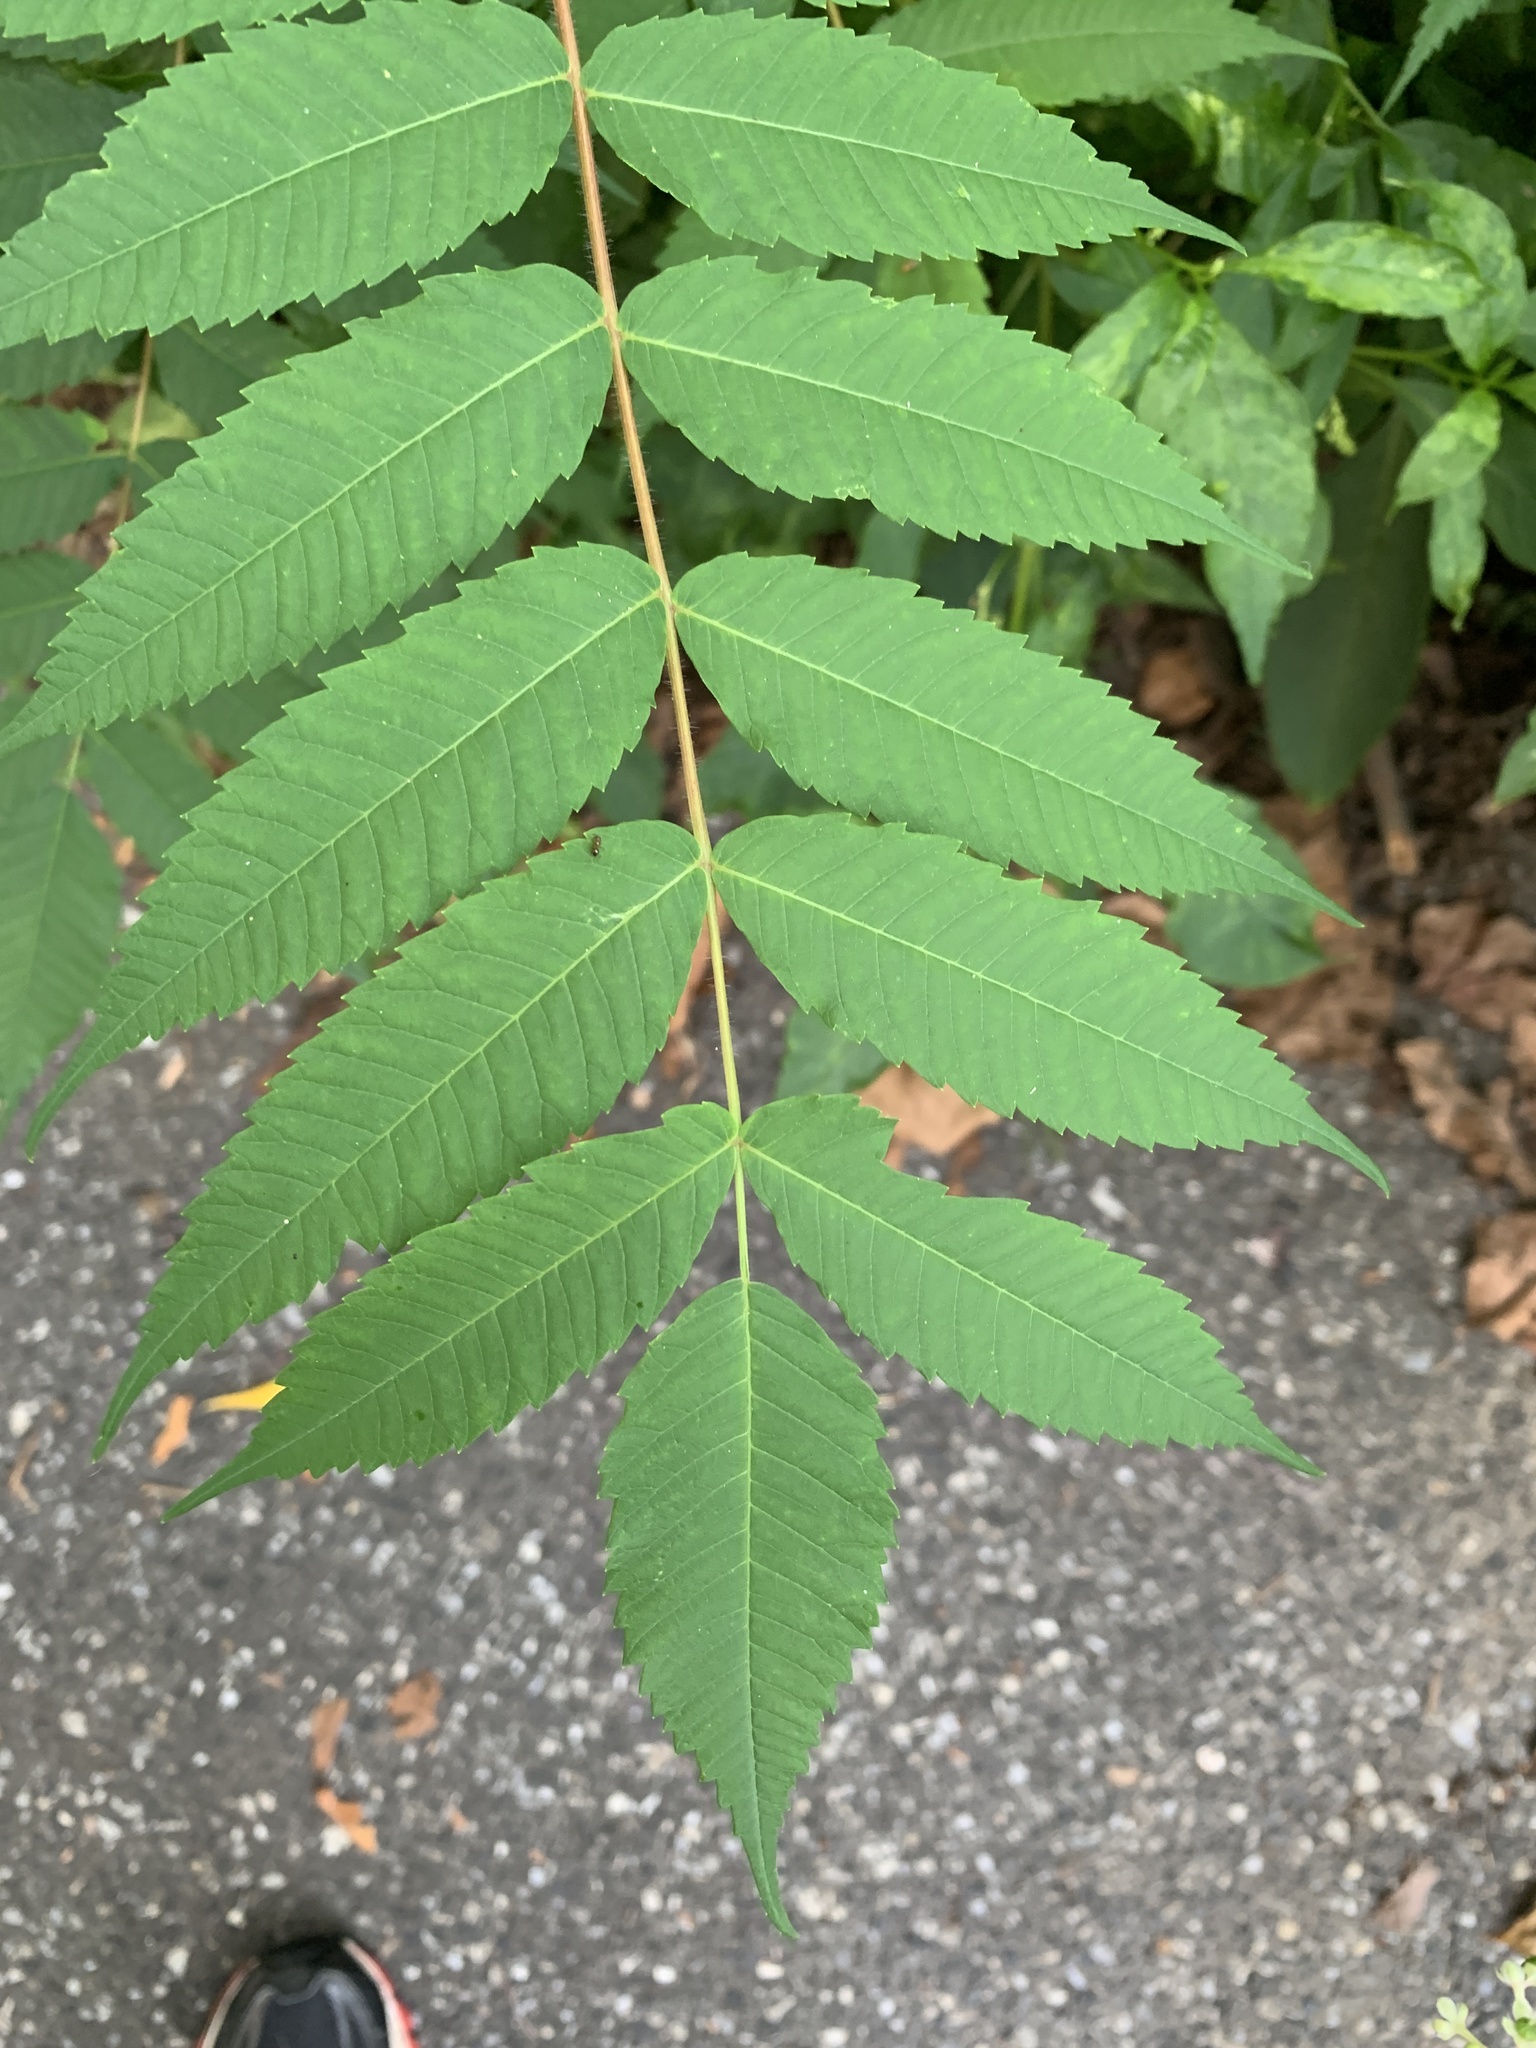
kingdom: Plantae
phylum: Tracheophyta
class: Magnoliopsida
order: Sapindales
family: Anacardiaceae
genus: Rhus
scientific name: Rhus typhina
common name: Staghorn sumac
